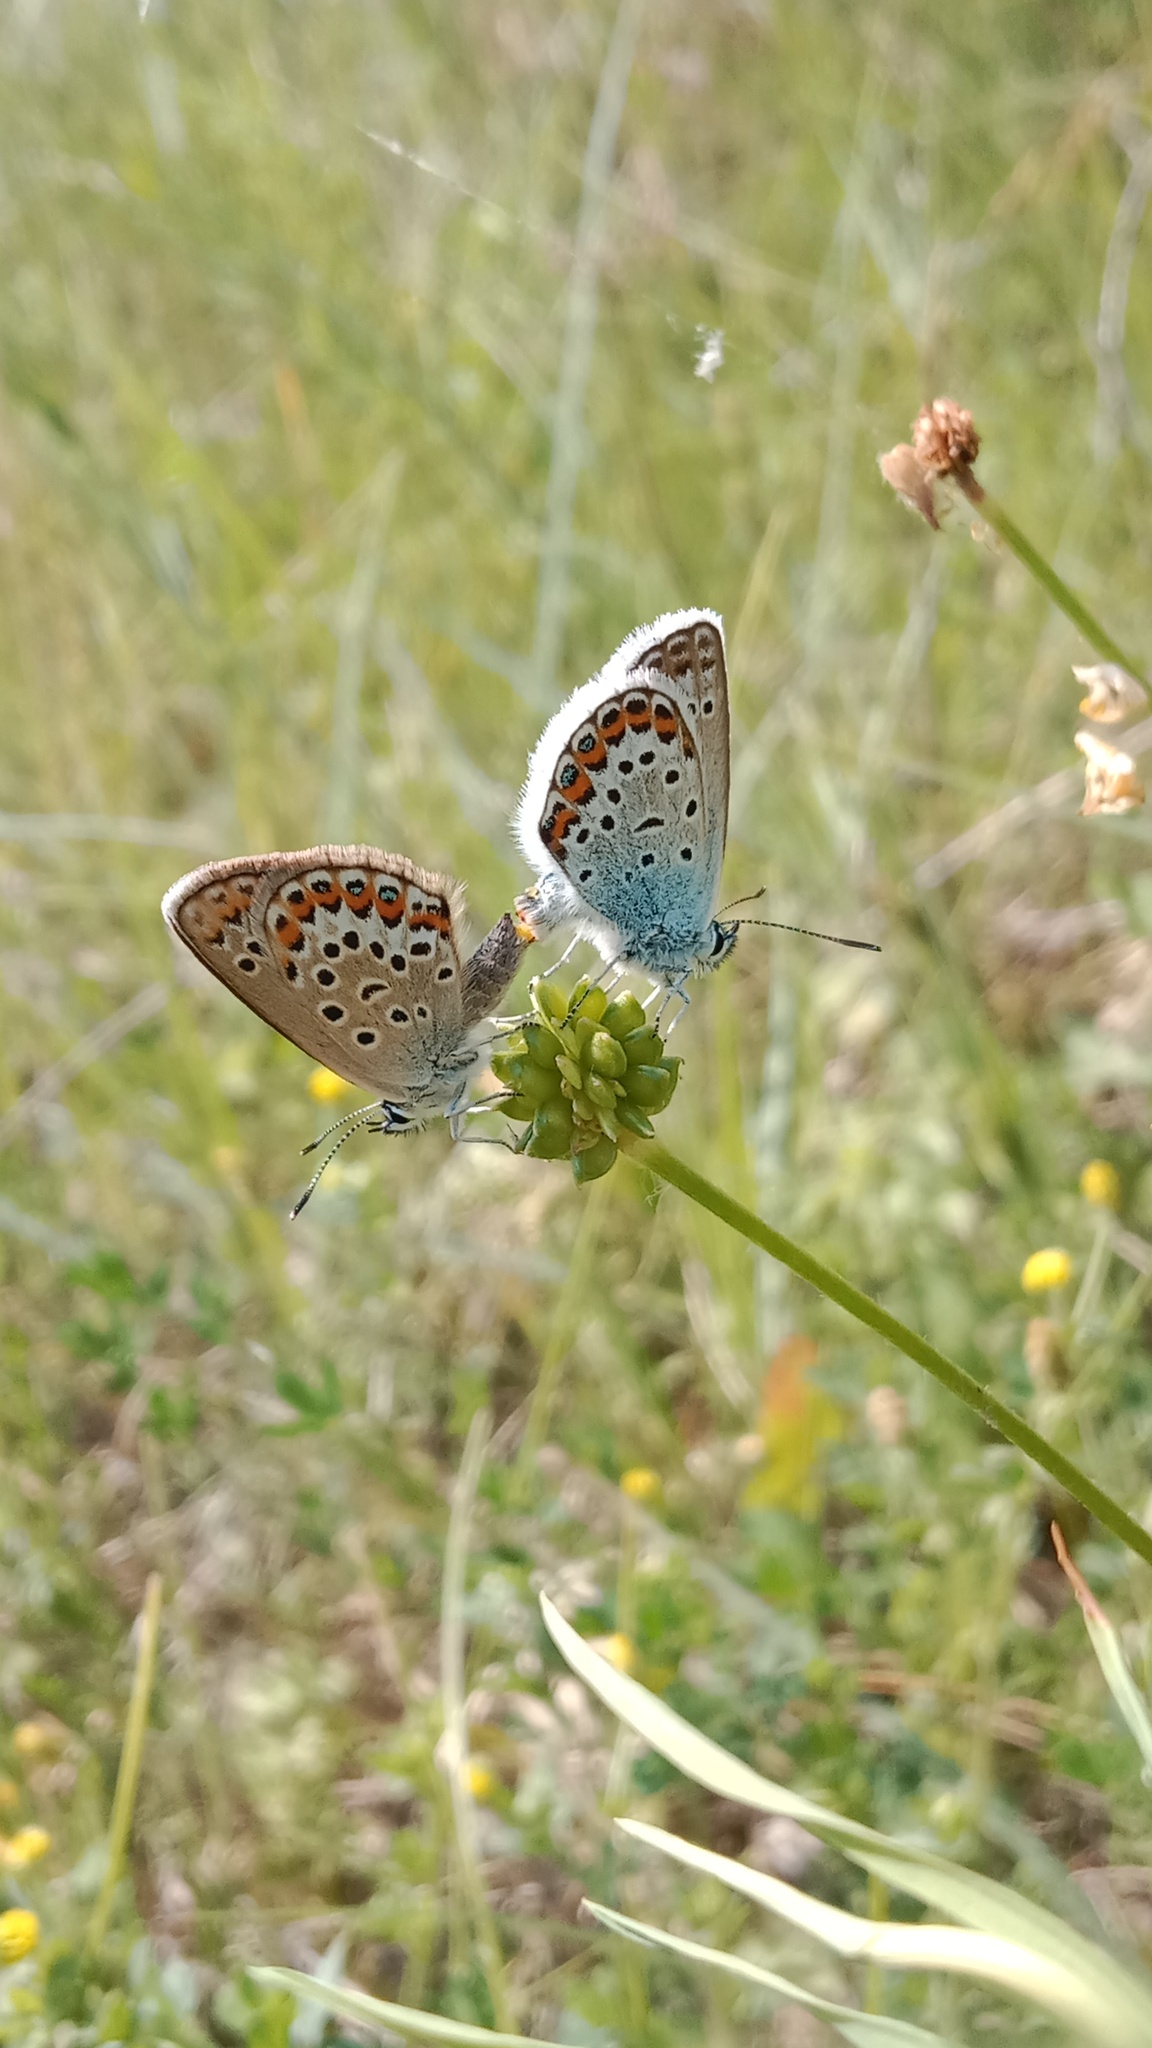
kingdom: Animalia
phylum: Arthropoda
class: Insecta
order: Lepidoptera
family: Lycaenidae
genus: Plebejus
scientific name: Plebejus argus
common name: Silver-studded blue
